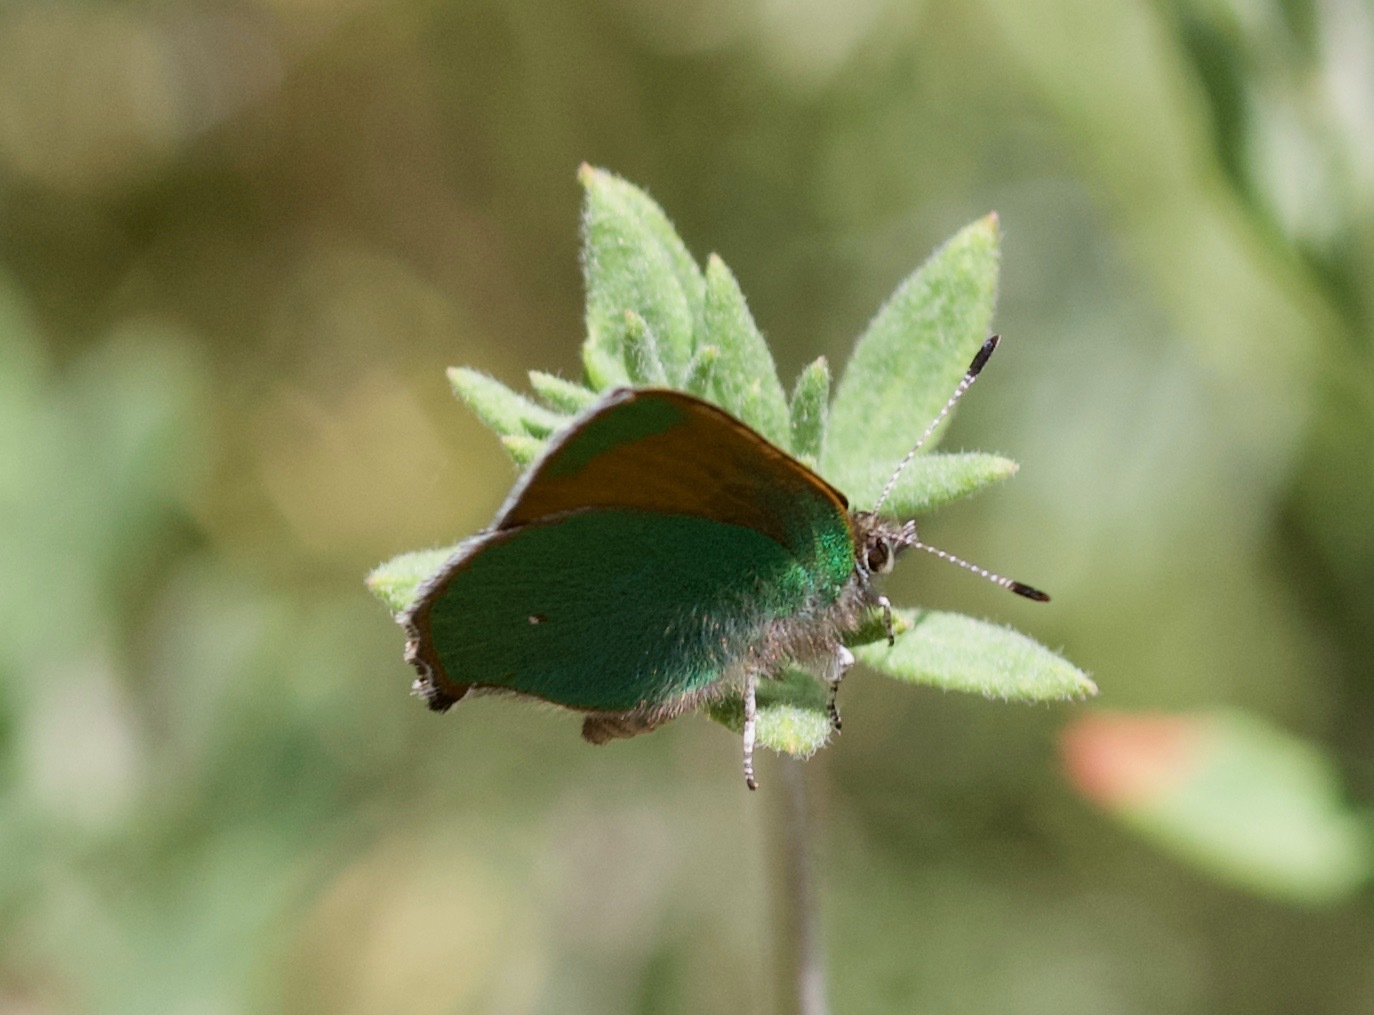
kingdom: Animalia
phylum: Arthropoda
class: Insecta
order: Lepidoptera
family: Lycaenidae
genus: Callophrys
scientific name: Callophrys dumetorum
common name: Bramble hairstreak
